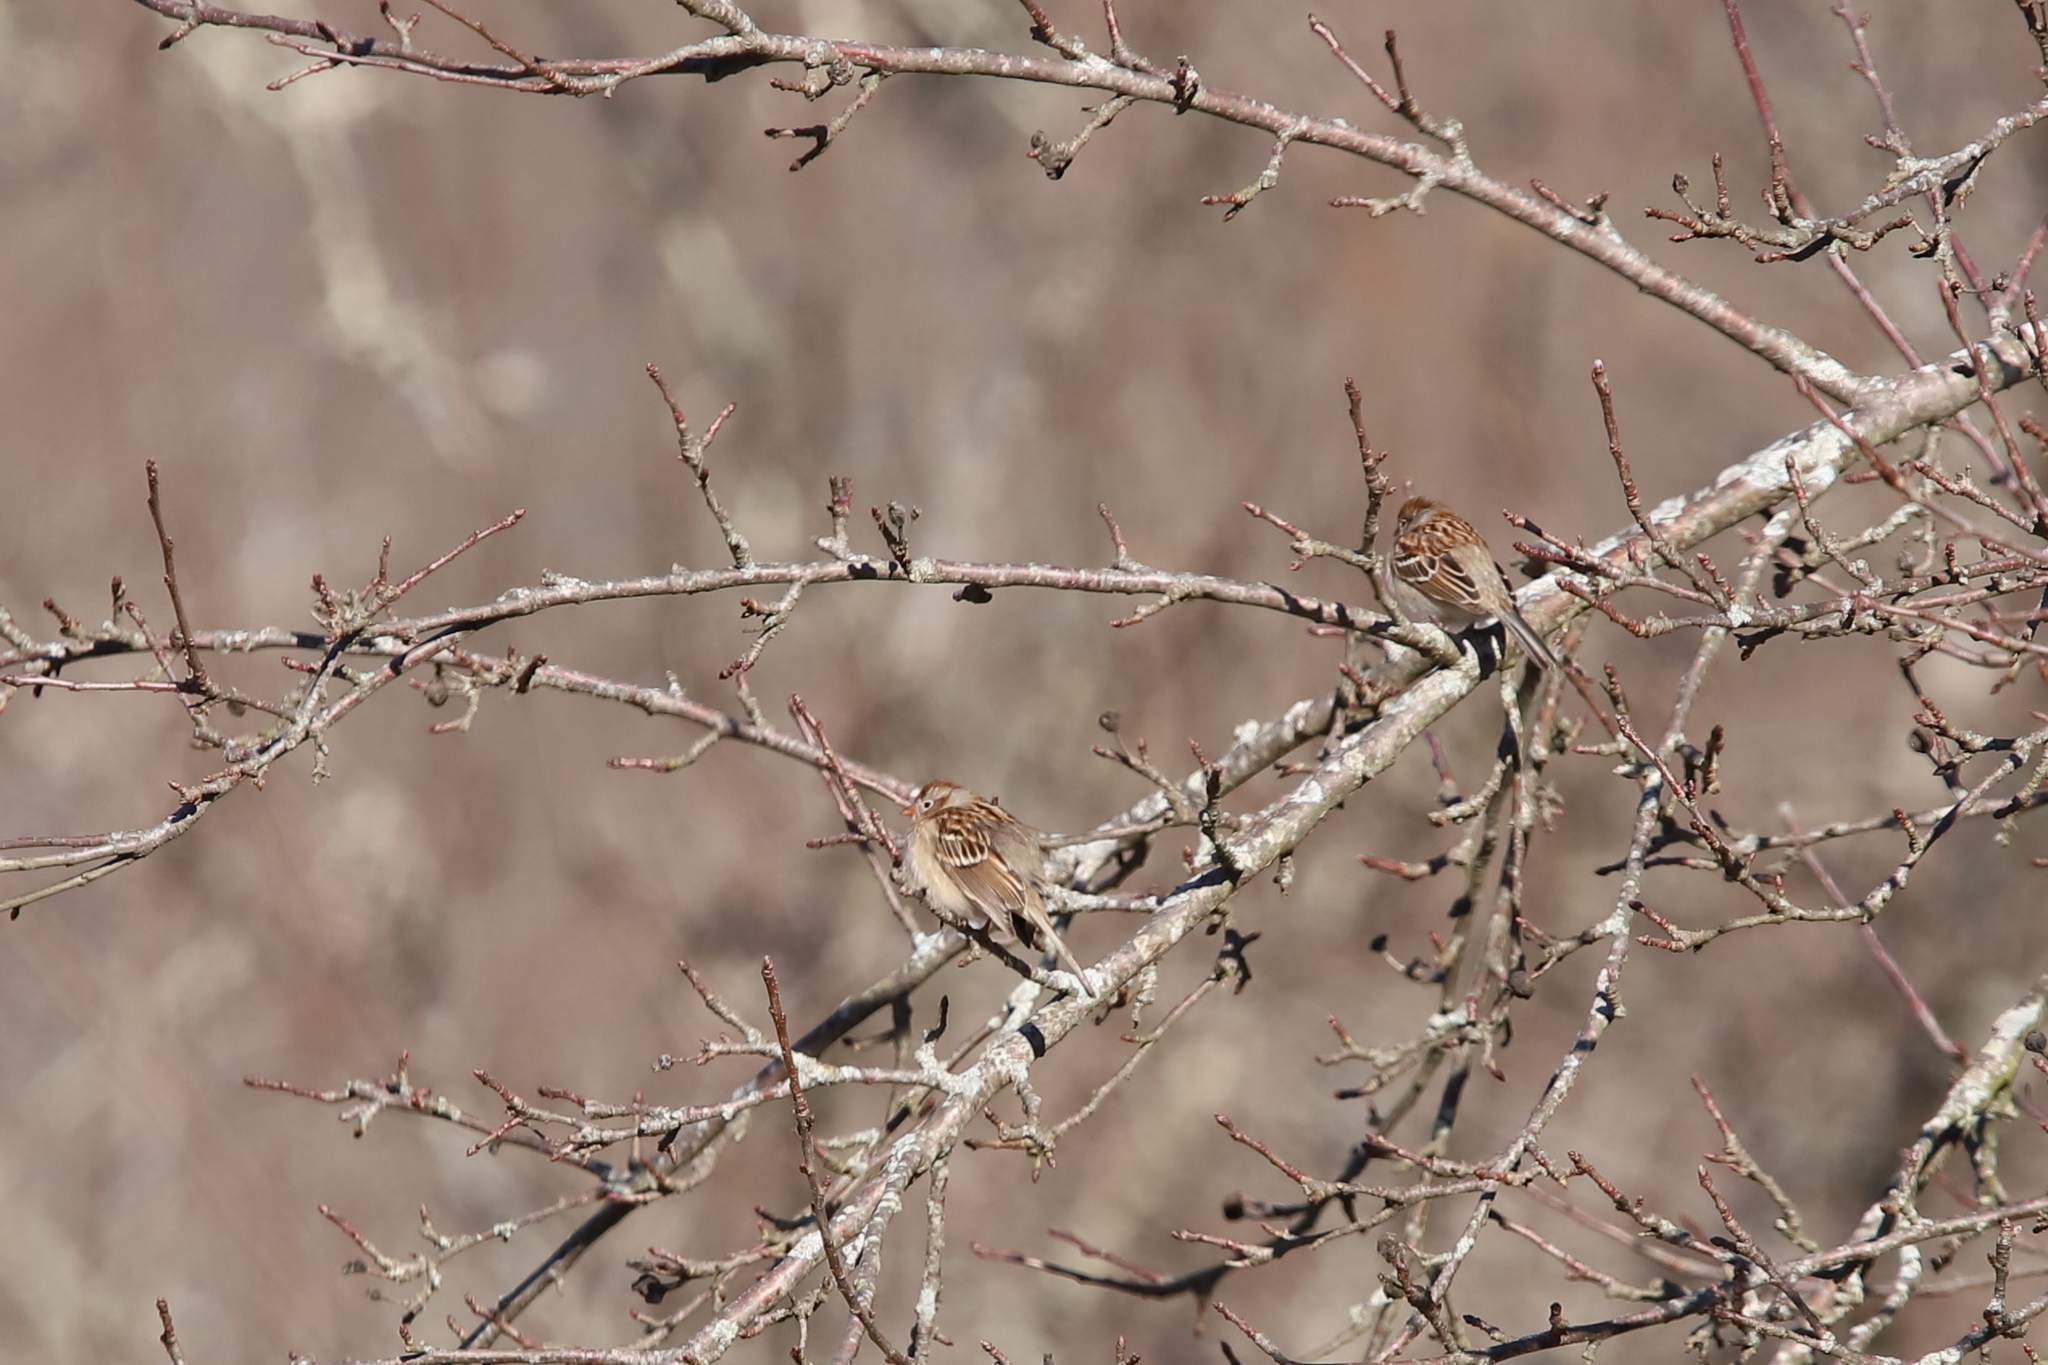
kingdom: Animalia
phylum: Chordata
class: Aves
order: Passeriformes
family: Passerellidae
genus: Spizella
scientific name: Spizella pusilla
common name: Field sparrow
